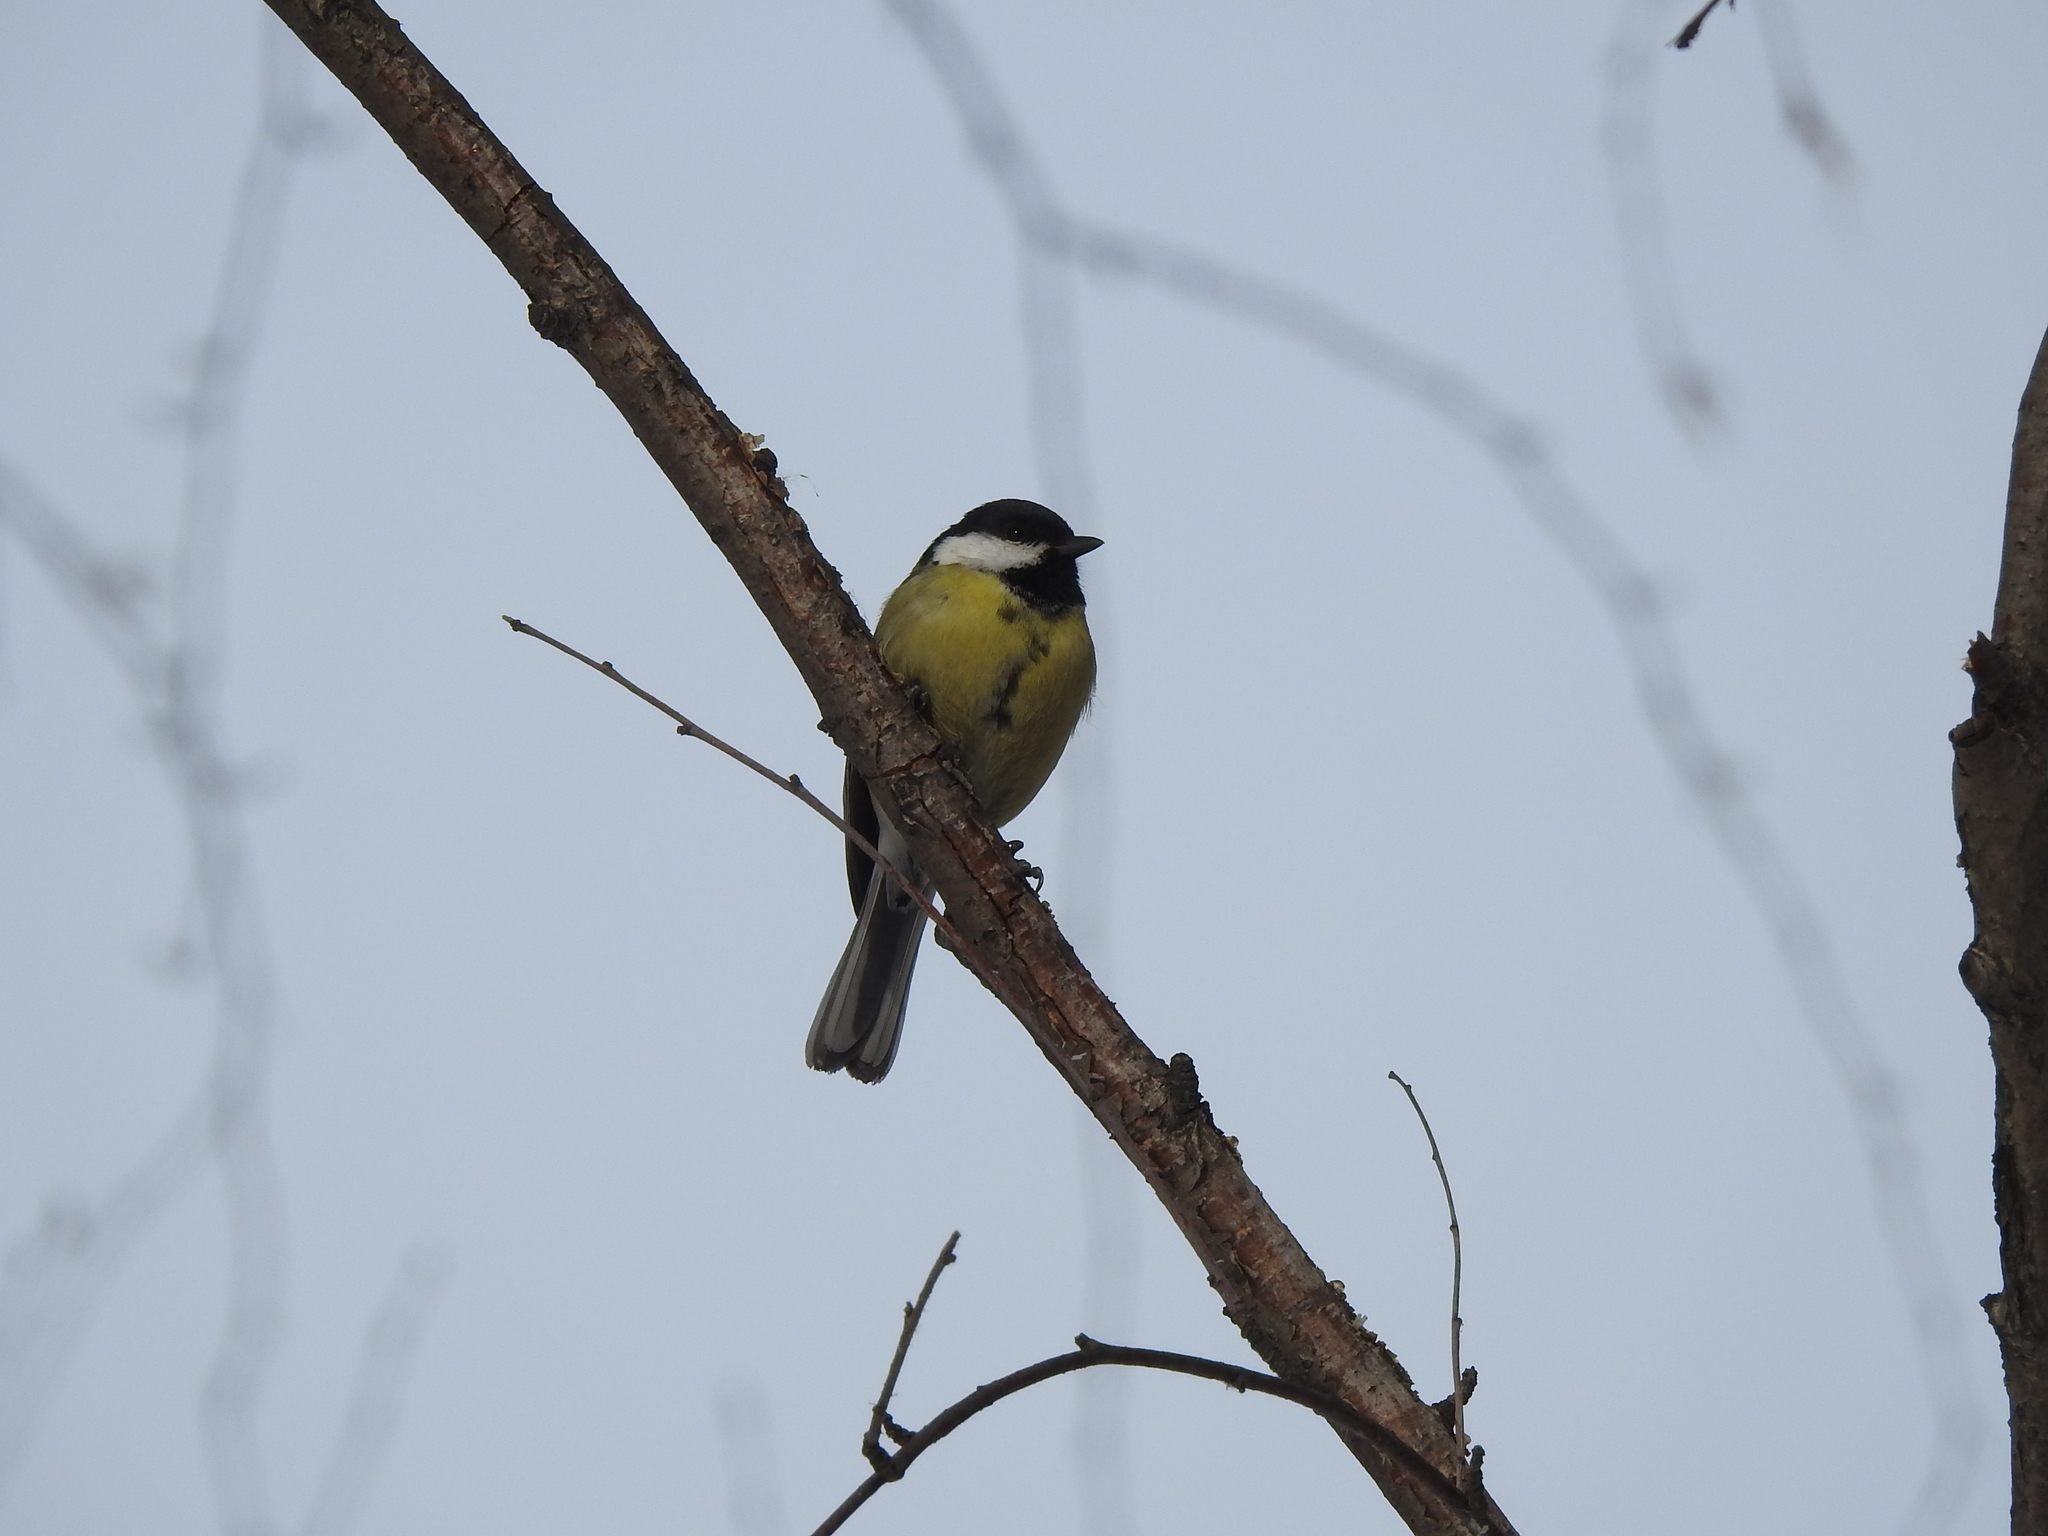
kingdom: Animalia
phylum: Chordata
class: Aves
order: Passeriformes
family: Paridae
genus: Parus
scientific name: Parus major
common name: Great tit
